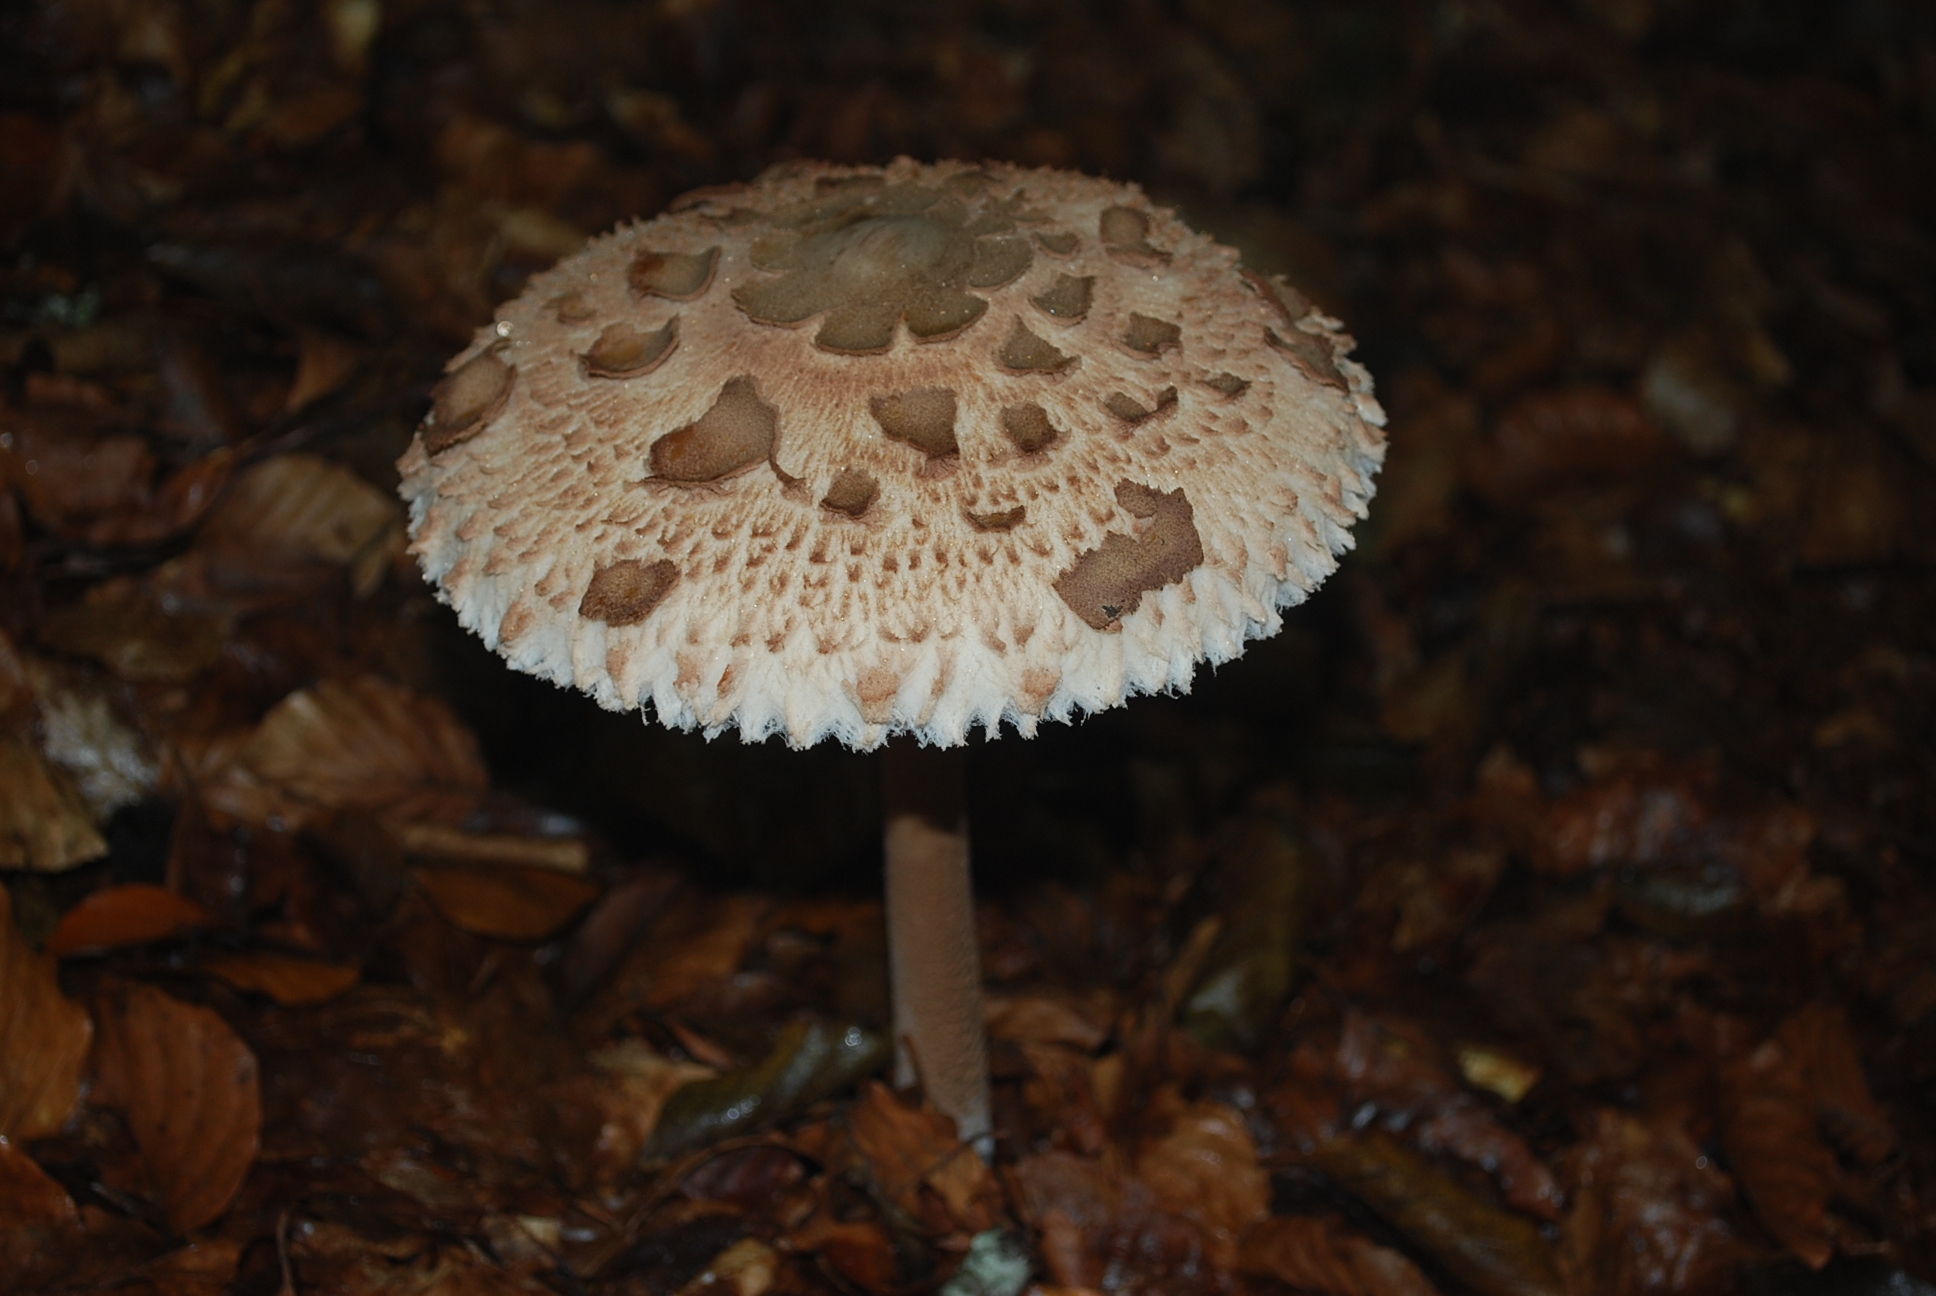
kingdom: Fungi
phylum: Basidiomycota
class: Agaricomycetes
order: Agaricales
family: Agaricaceae
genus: Macrolepiota
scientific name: Macrolepiota procera
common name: Parasol
